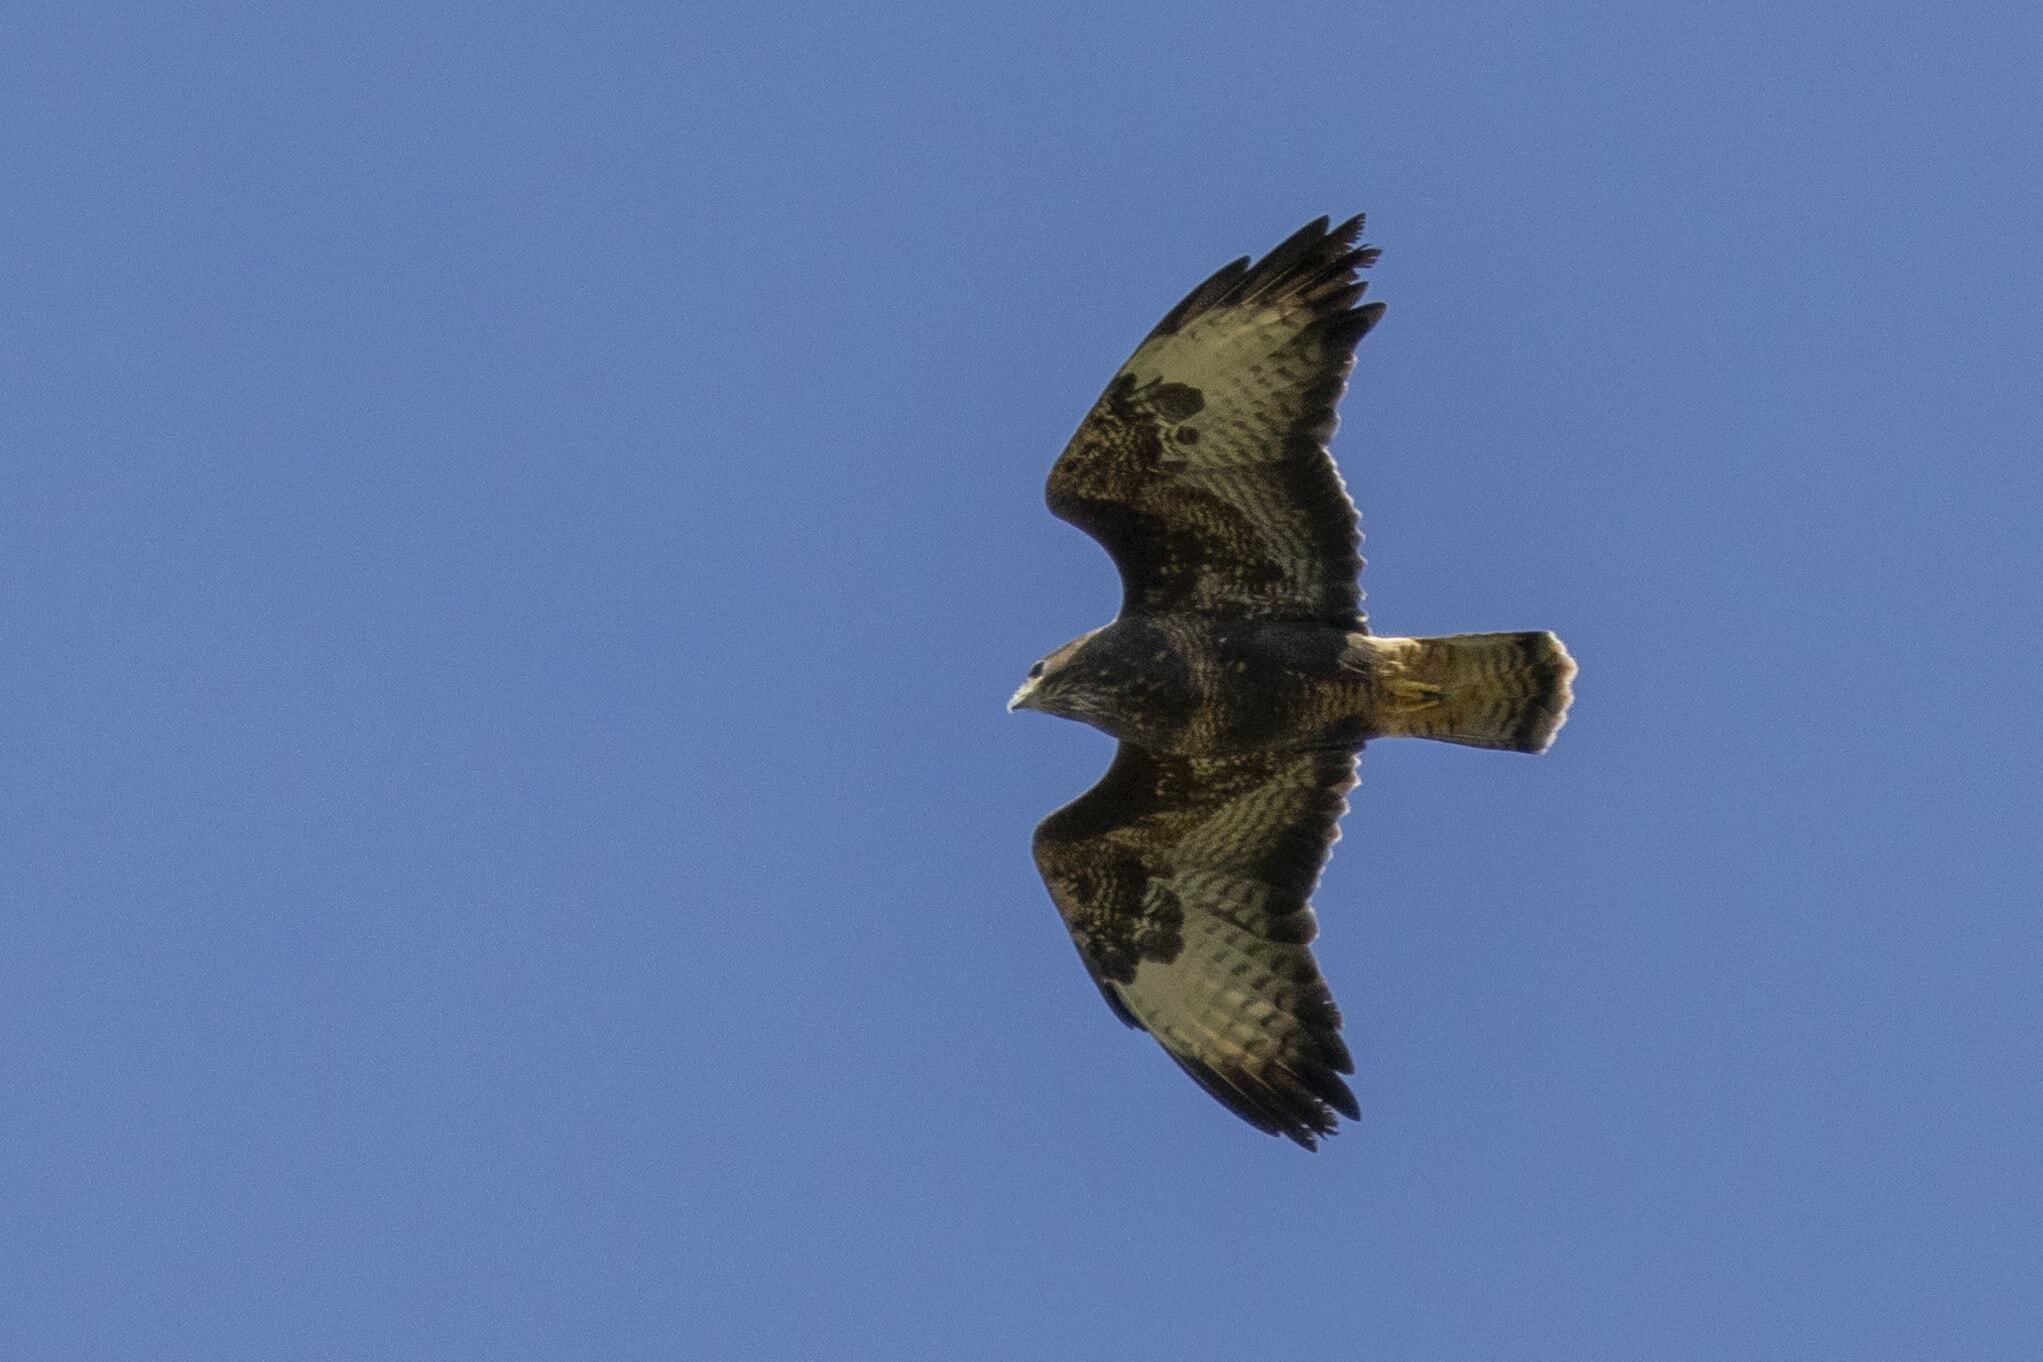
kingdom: Animalia
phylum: Chordata
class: Aves
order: Accipitriformes
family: Accipitridae
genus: Buteo
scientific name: Buteo buteo
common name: Common buzzard
